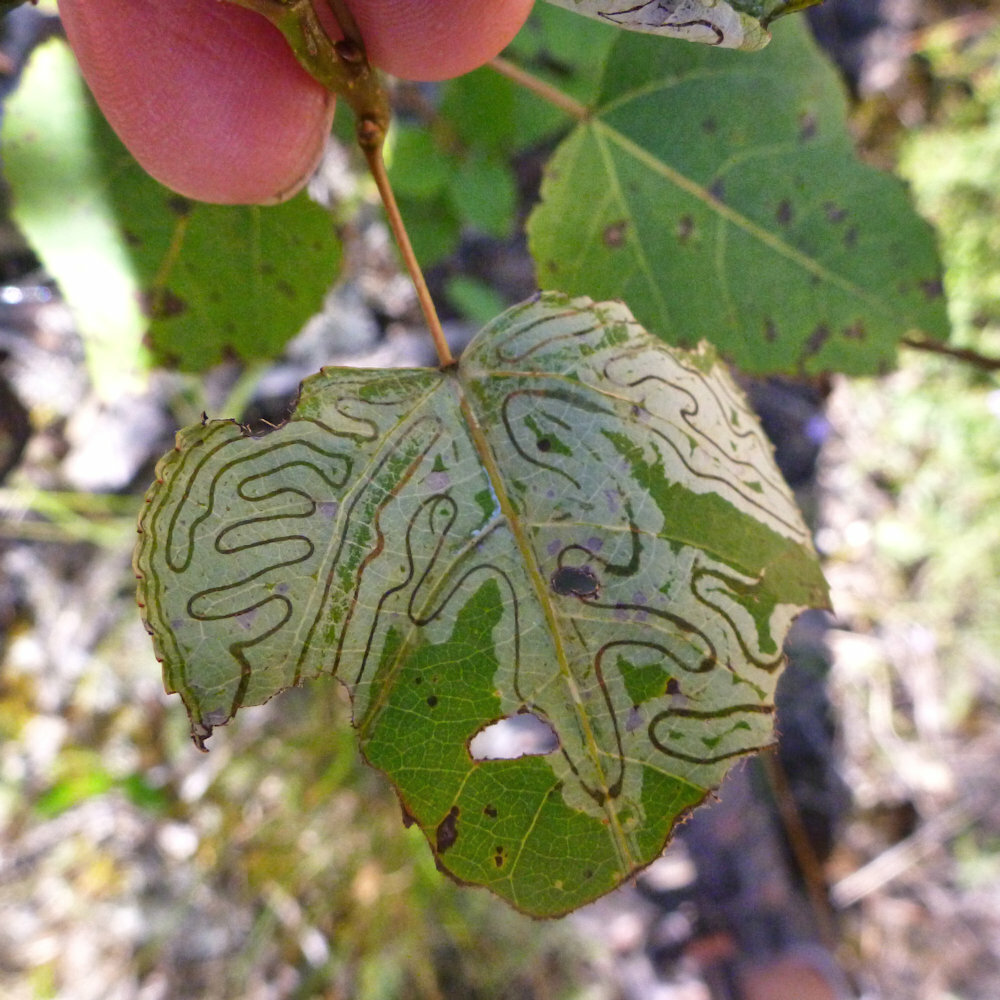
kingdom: Animalia
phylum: Arthropoda
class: Insecta
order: Lepidoptera
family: Gracillariidae
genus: Phyllocnistis
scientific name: Phyllocnistis populiella
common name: Aspen serpentine leafminer moth
